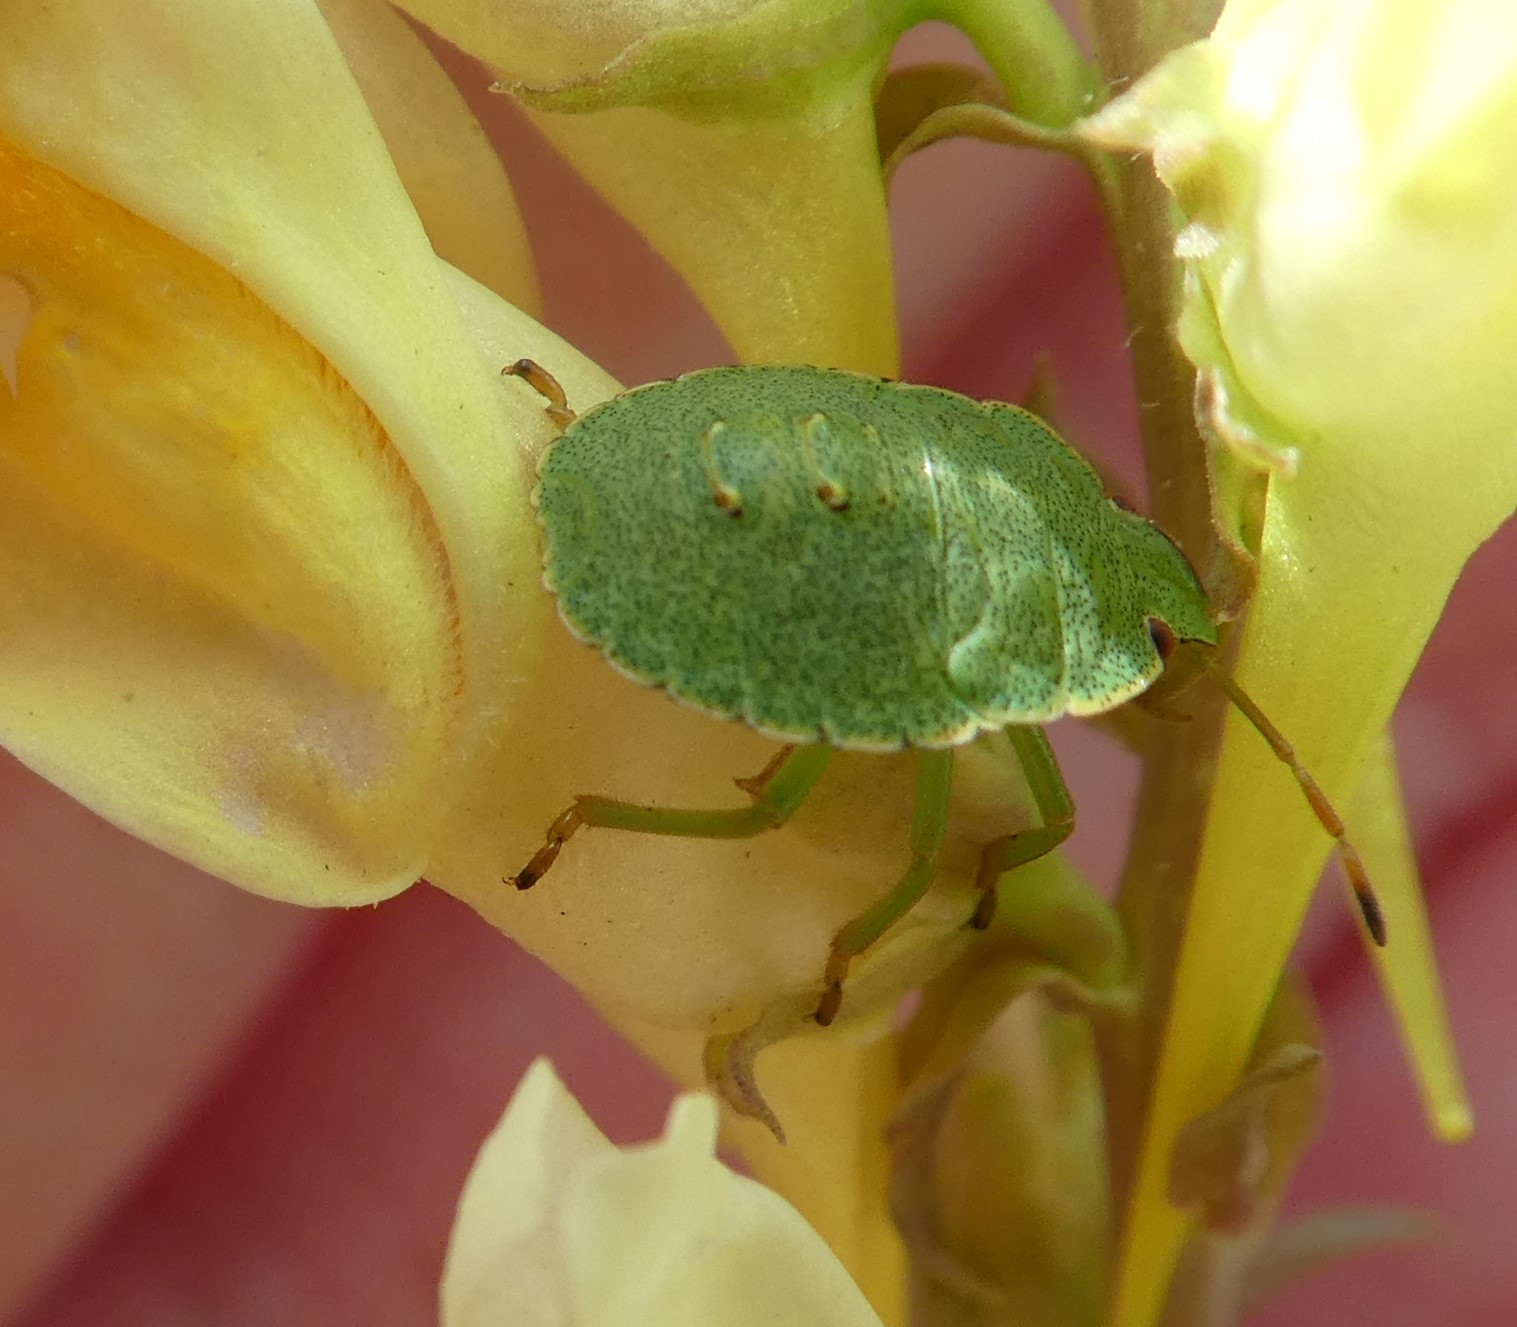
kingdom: Animalia
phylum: Arthropoda
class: Insecta
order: Hemiptera
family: Pentatomidae
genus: Palomena
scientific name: Palomena prasina
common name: Green shieldbug
